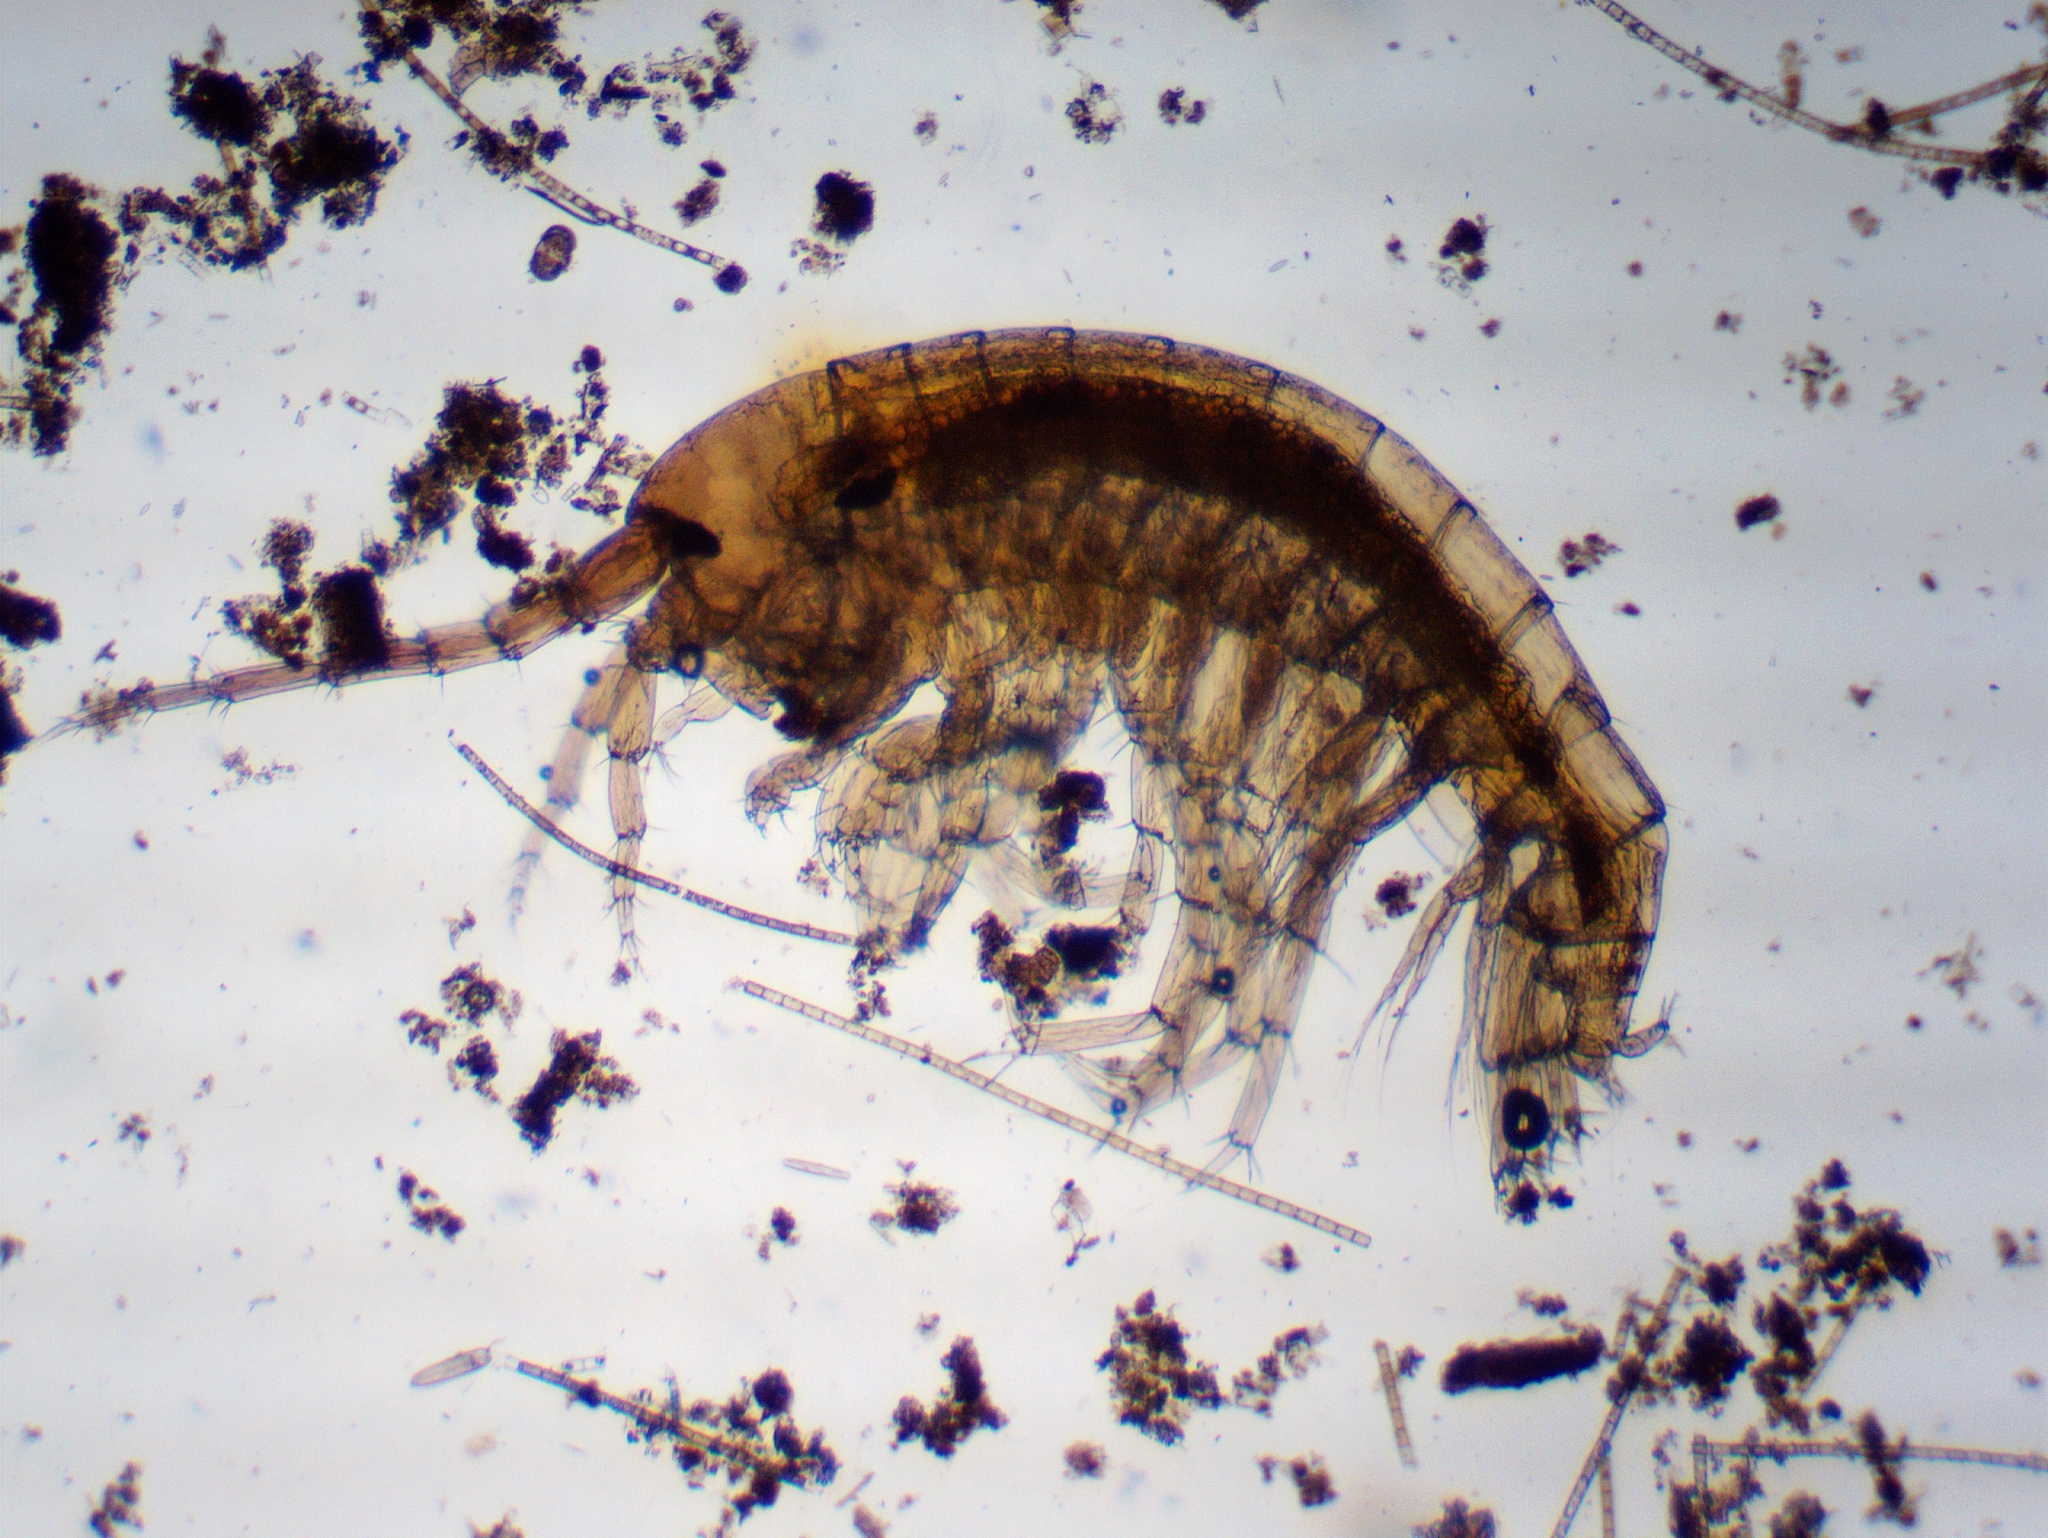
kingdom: Animalia
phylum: Arthropoda
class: Malacostraca
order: Amphipoda
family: Crangonyctidae
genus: Sicifera
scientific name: Sicifera chamberlaini
